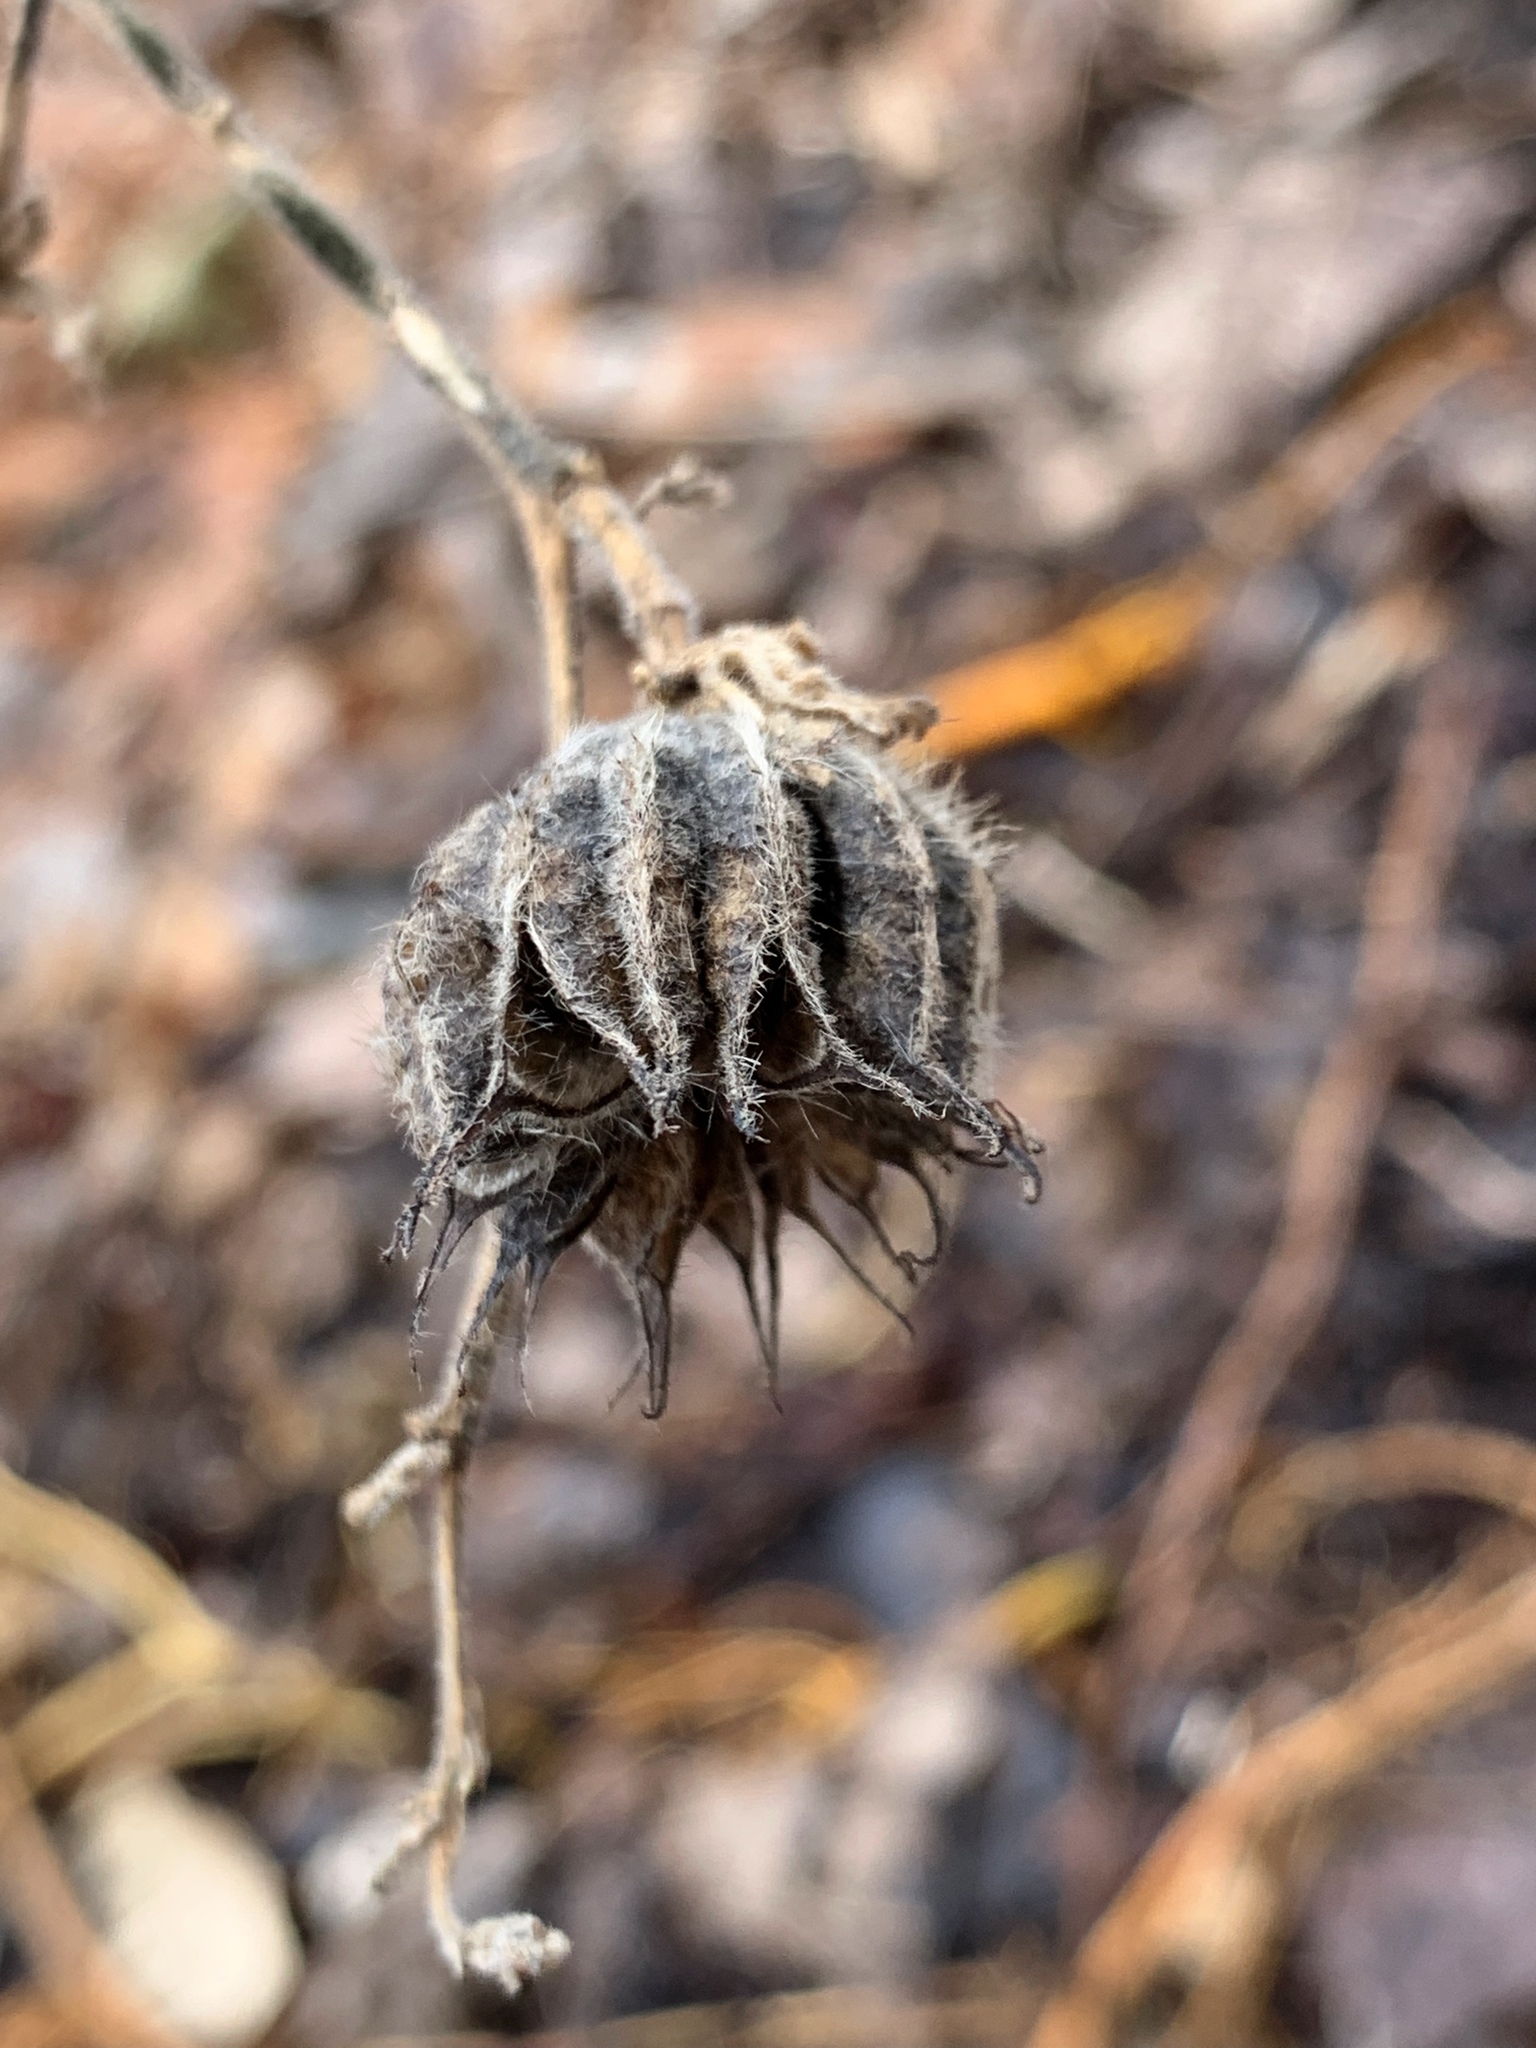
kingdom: Plantae
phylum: Tracheophyta
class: Magnoliopsida
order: Malvales
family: Malvaceae
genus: Abutilon
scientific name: Abutilon theophrasti
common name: Velvetleaf
